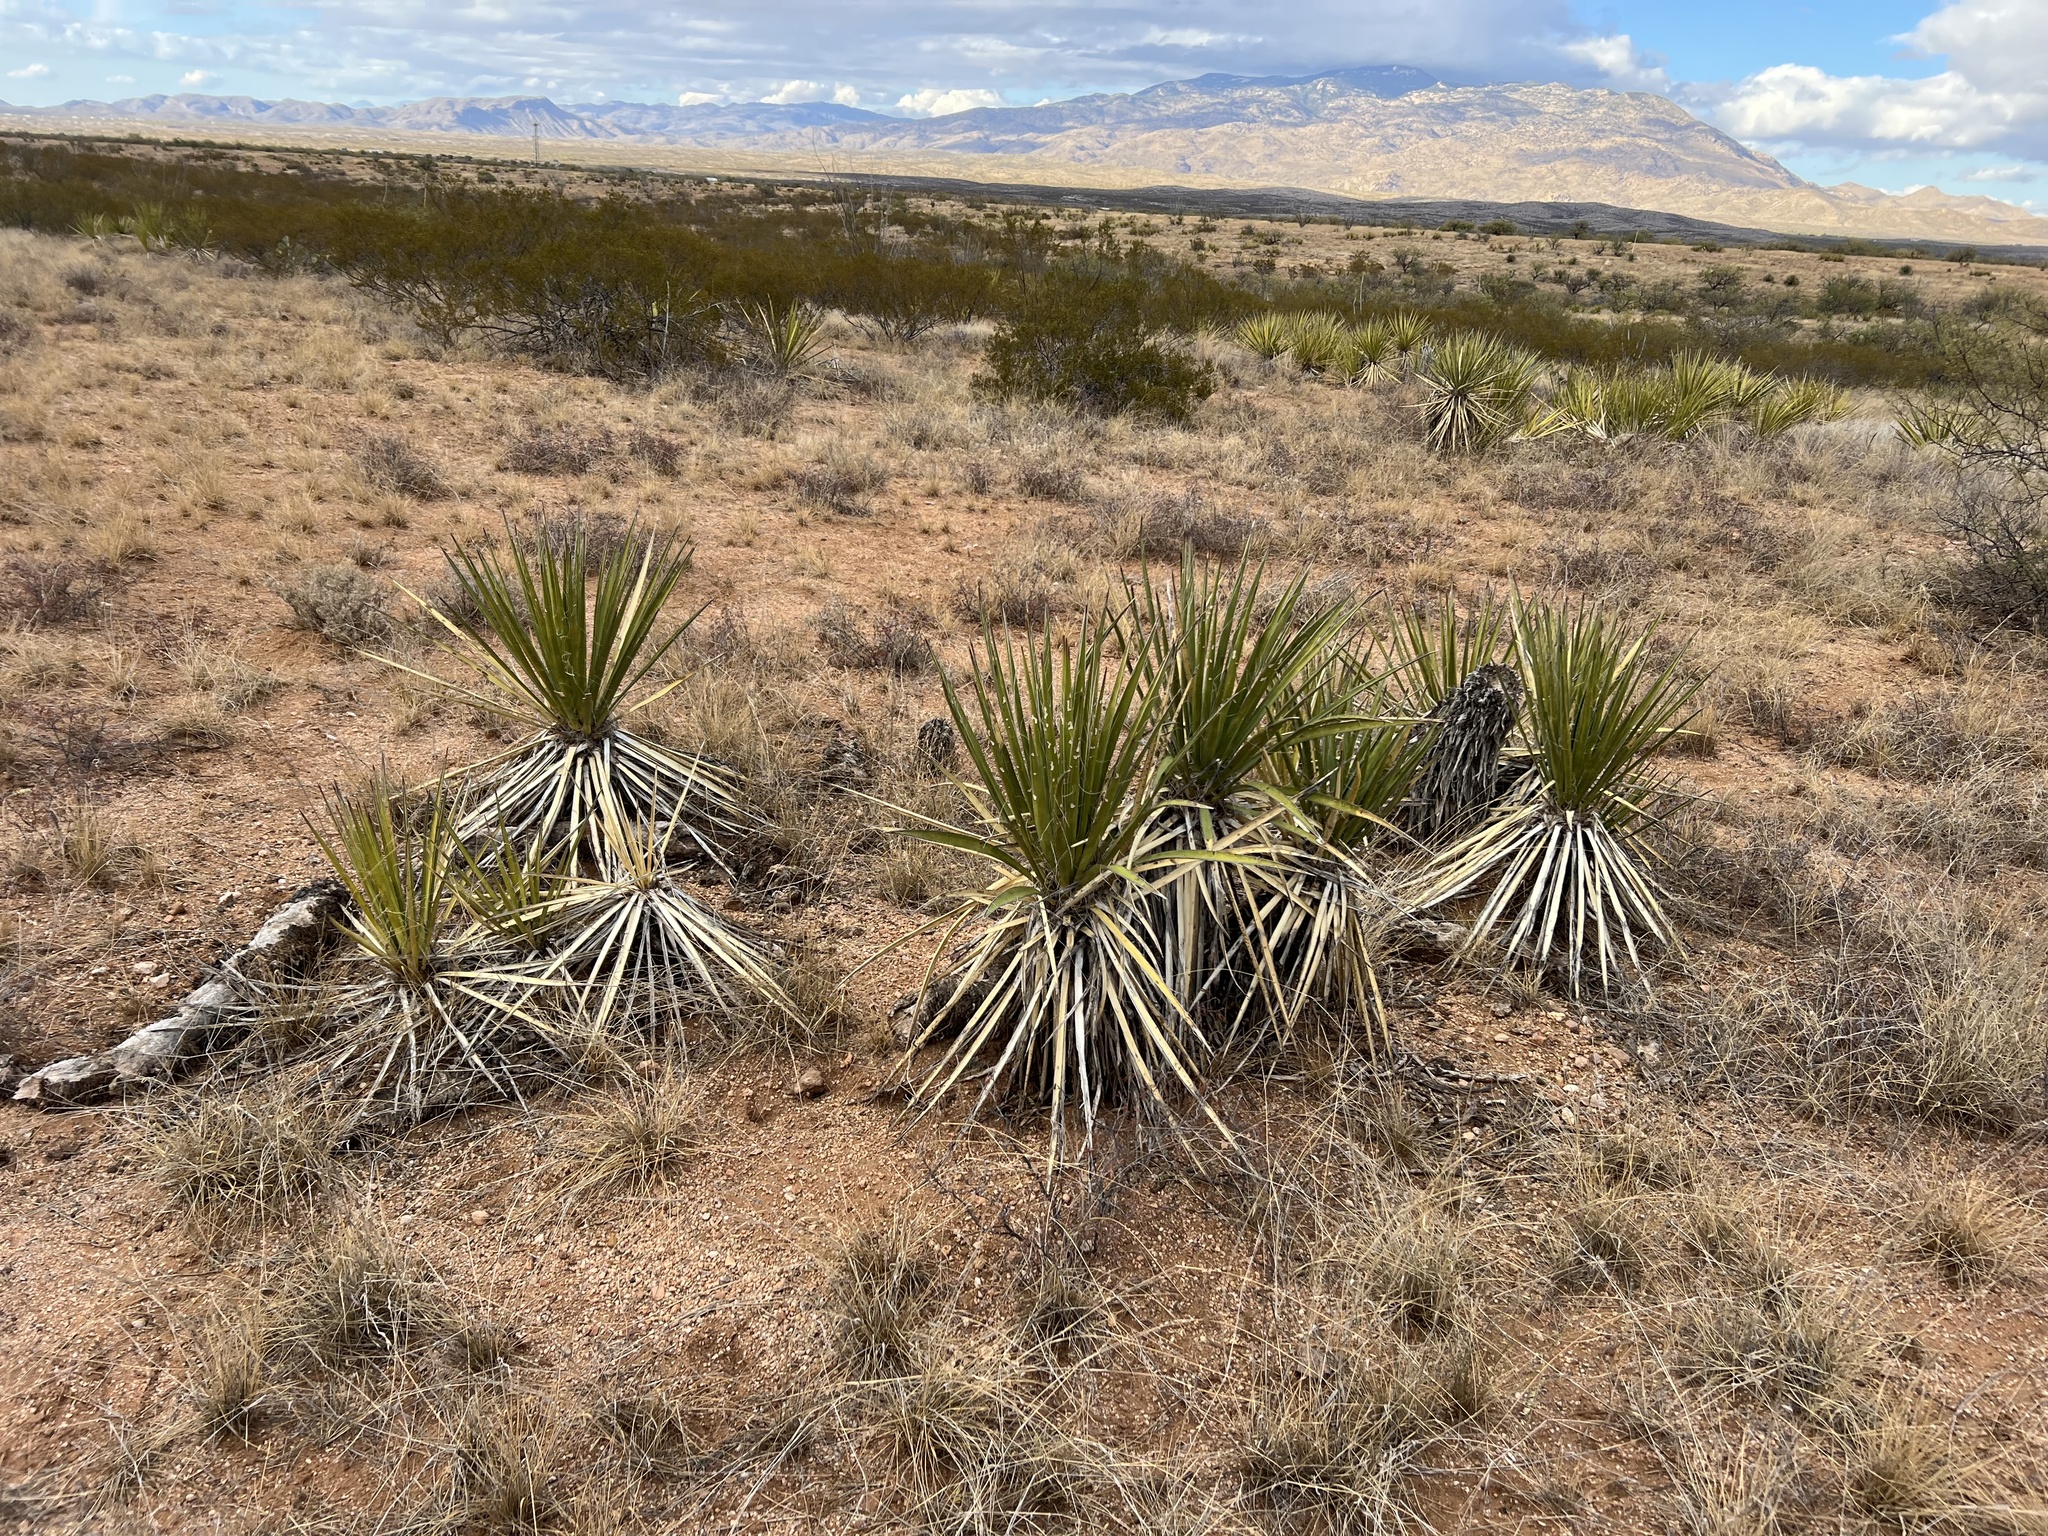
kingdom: Plantae
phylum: Tracheophyta
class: Liliopsida
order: Asparagales
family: Asparagaceae
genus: Yucca
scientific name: Yucca baccata
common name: Banana yucca
